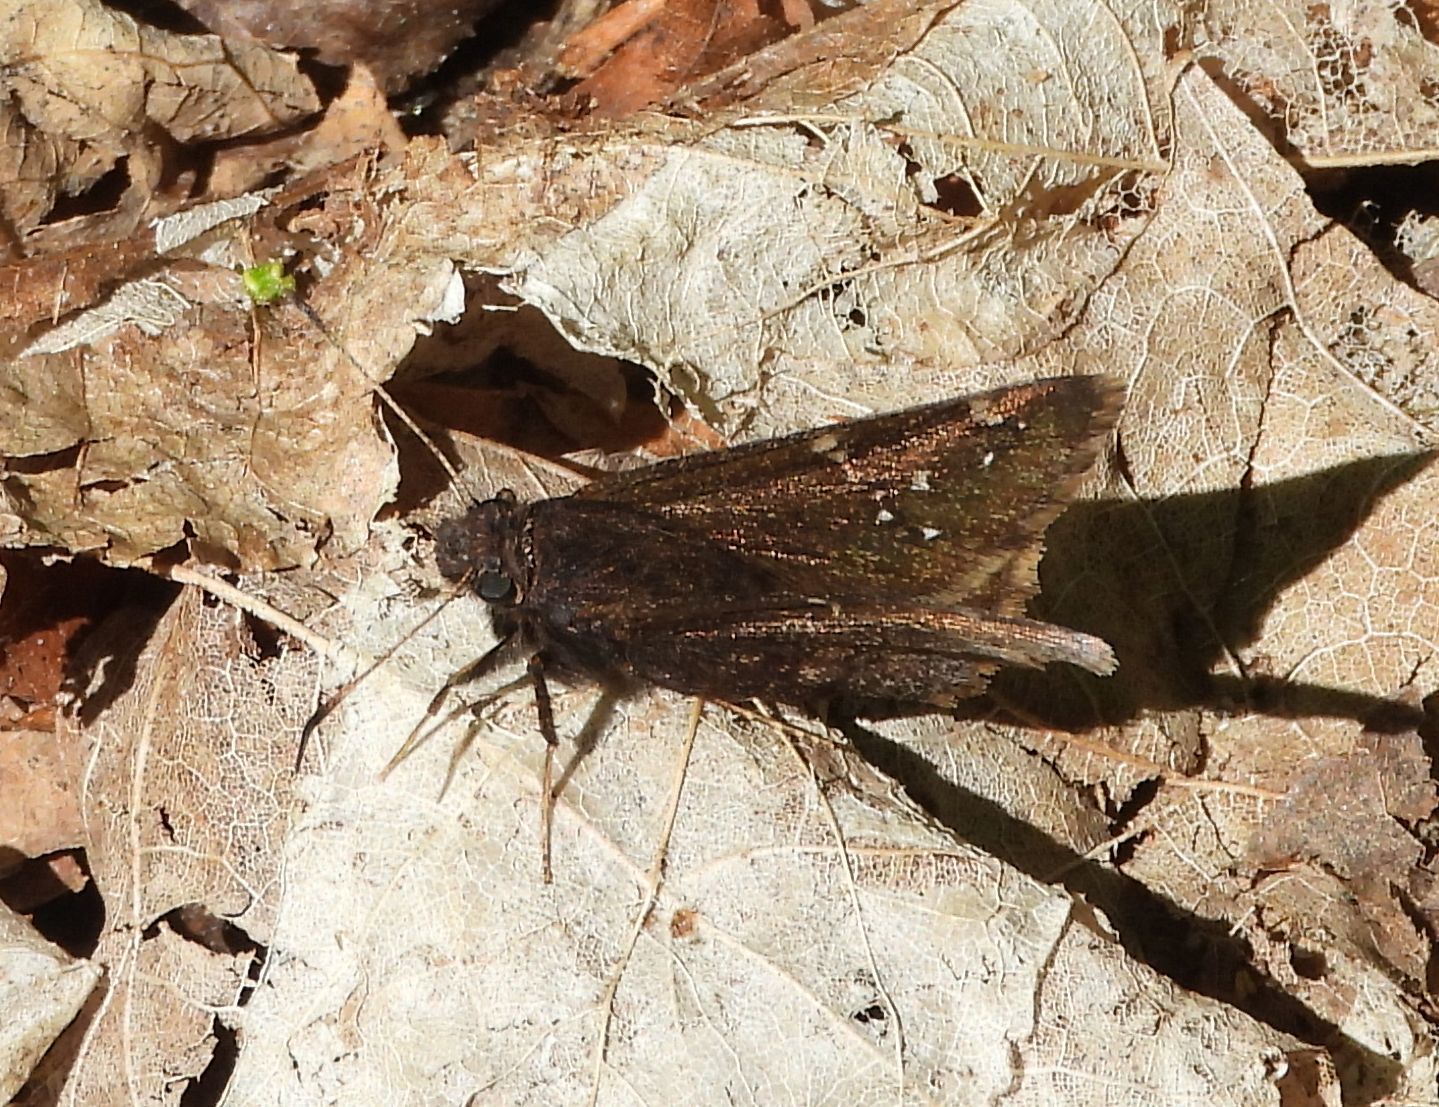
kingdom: Animalia
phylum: Arthropoda
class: Insecta
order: Lepidoptera
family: Hesperiidae
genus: Thorybes
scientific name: Thorybes pylades
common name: Northern cloudywing
